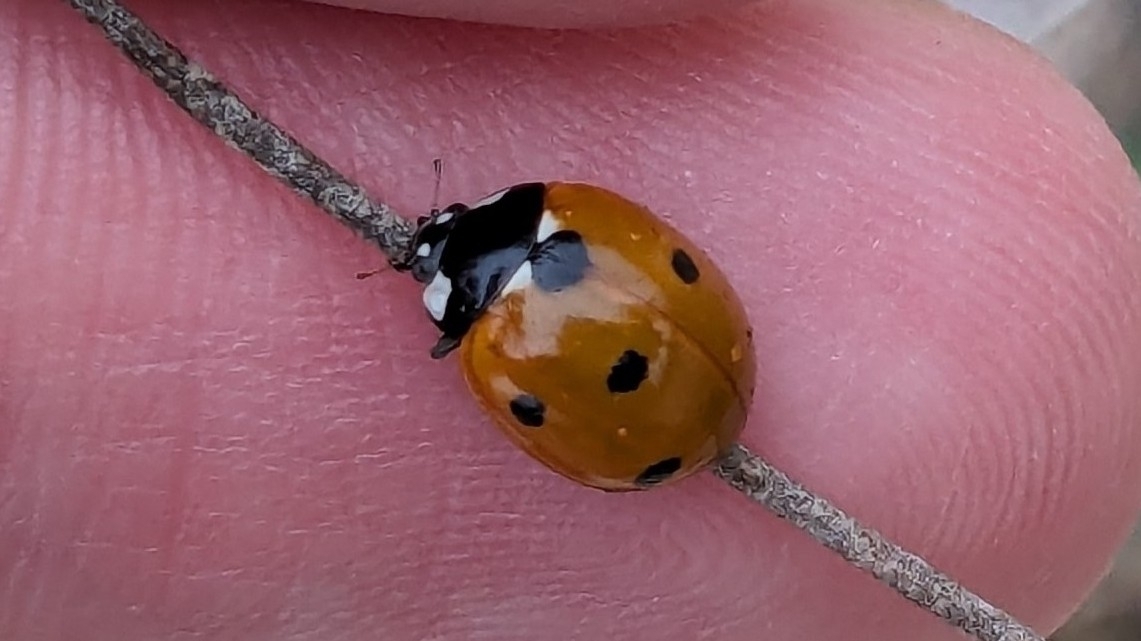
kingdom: Animalia
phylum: Arthropoda
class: Insecta
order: Coleoptera
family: Coccinellidae
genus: Coccinella
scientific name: Coccinella septempunctata
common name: Sevenspotted lady beetle
